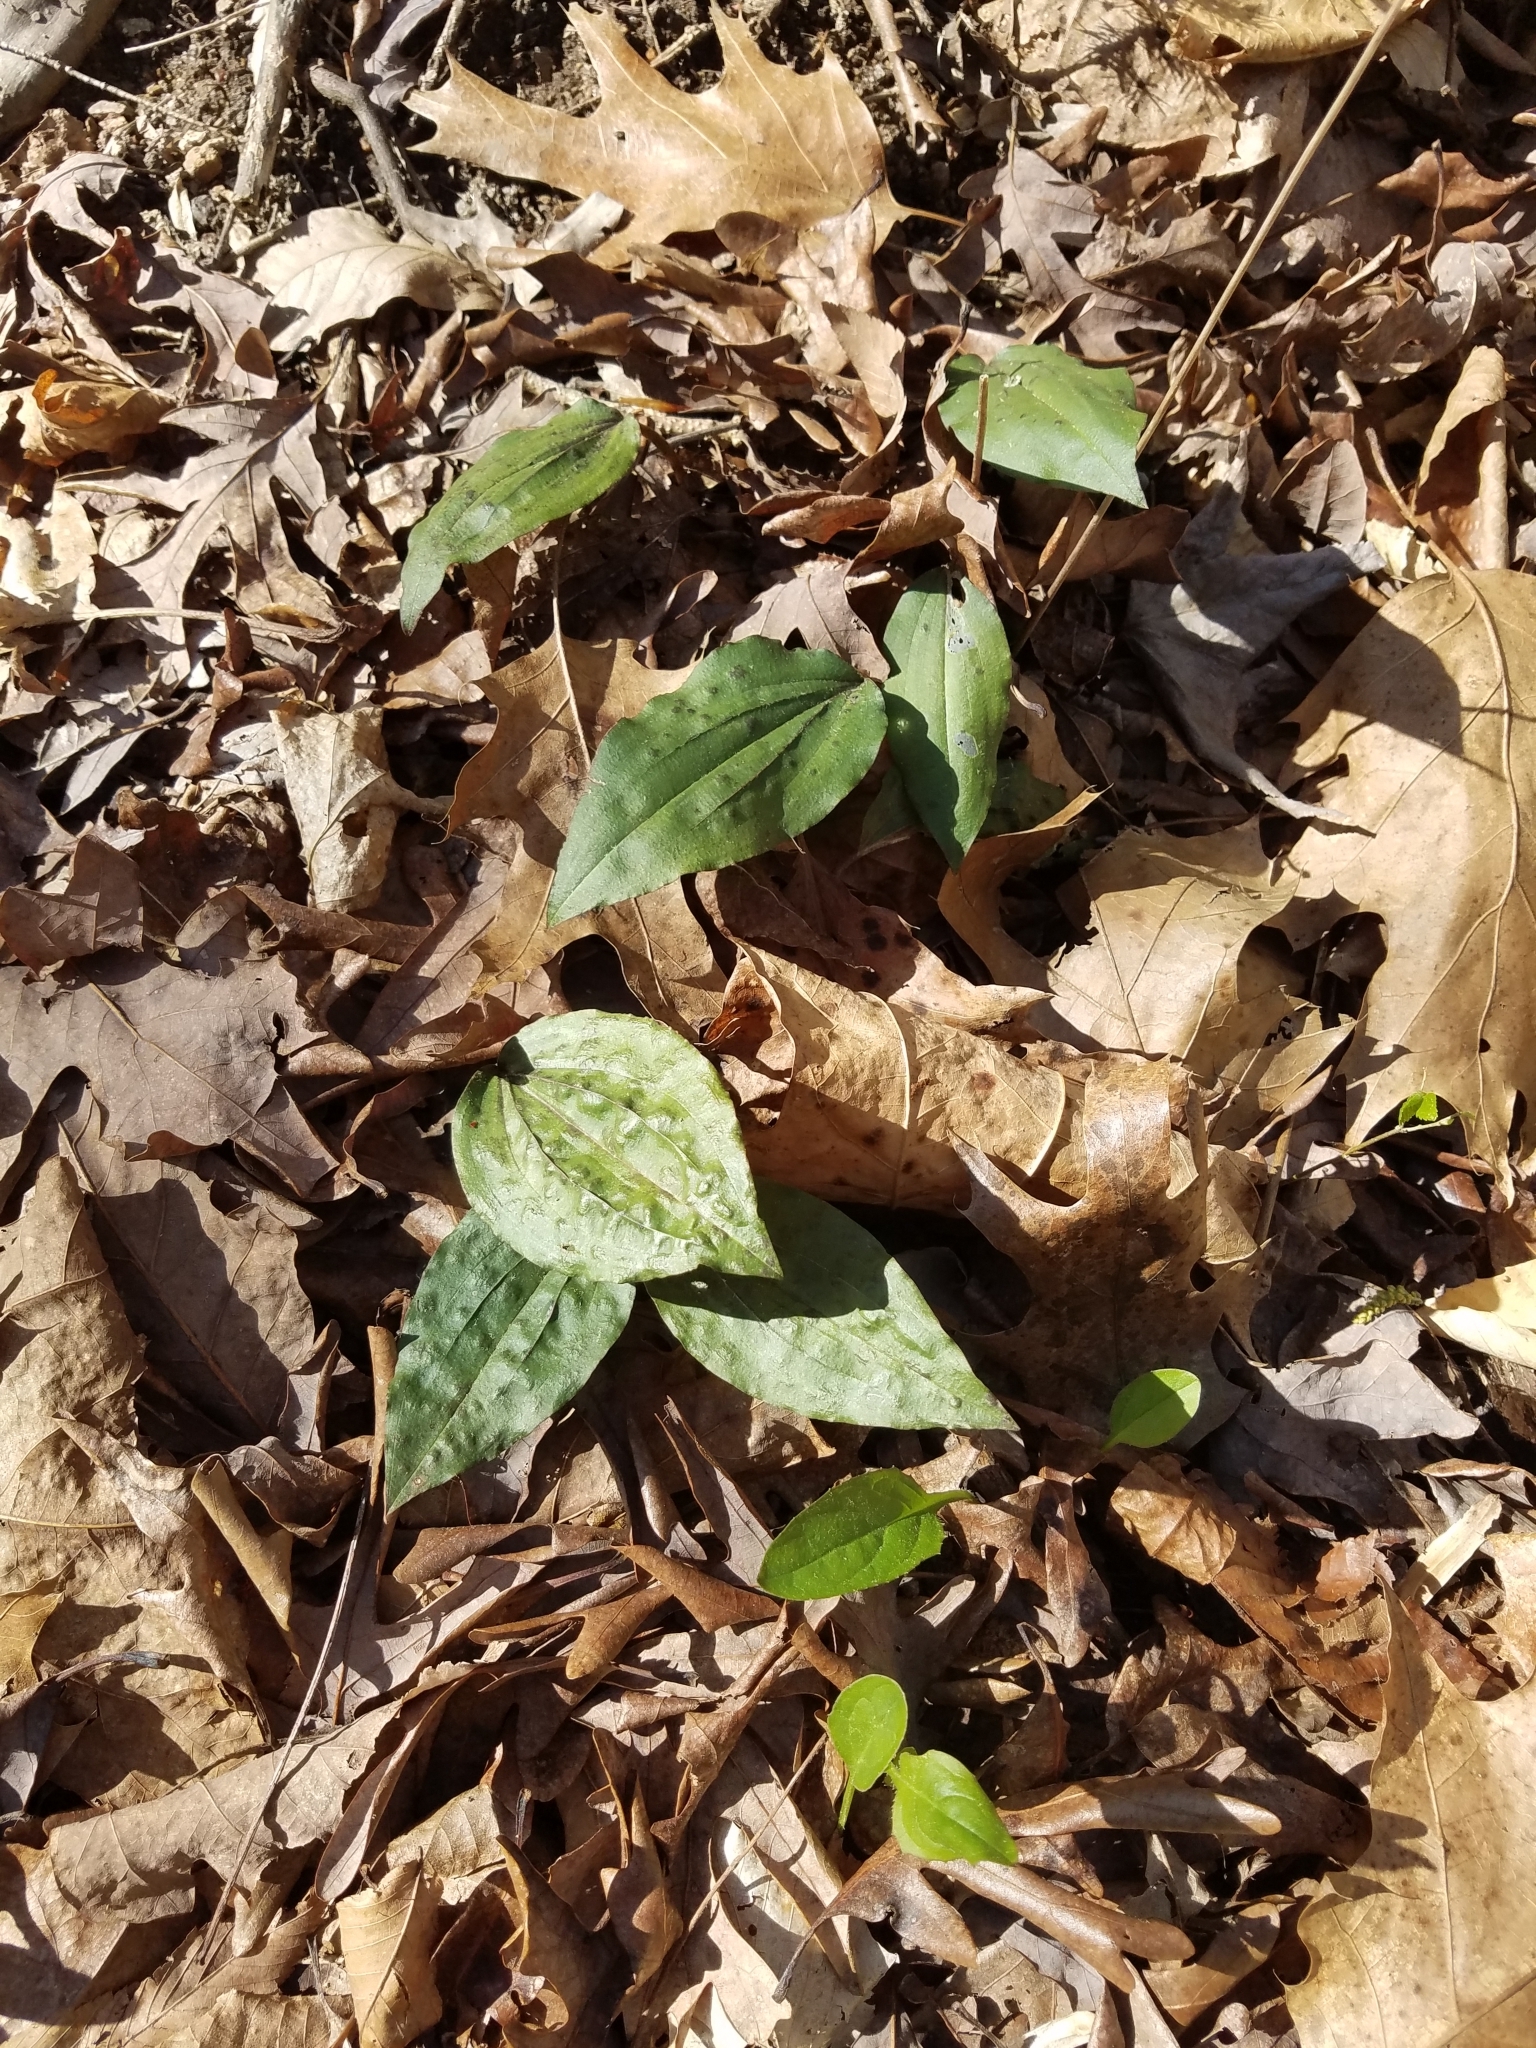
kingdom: Plantae
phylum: Tracheophyta
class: Liliopsida
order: Asparagales
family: Orchidaceae
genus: Tipularia
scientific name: Tipularia discolor
